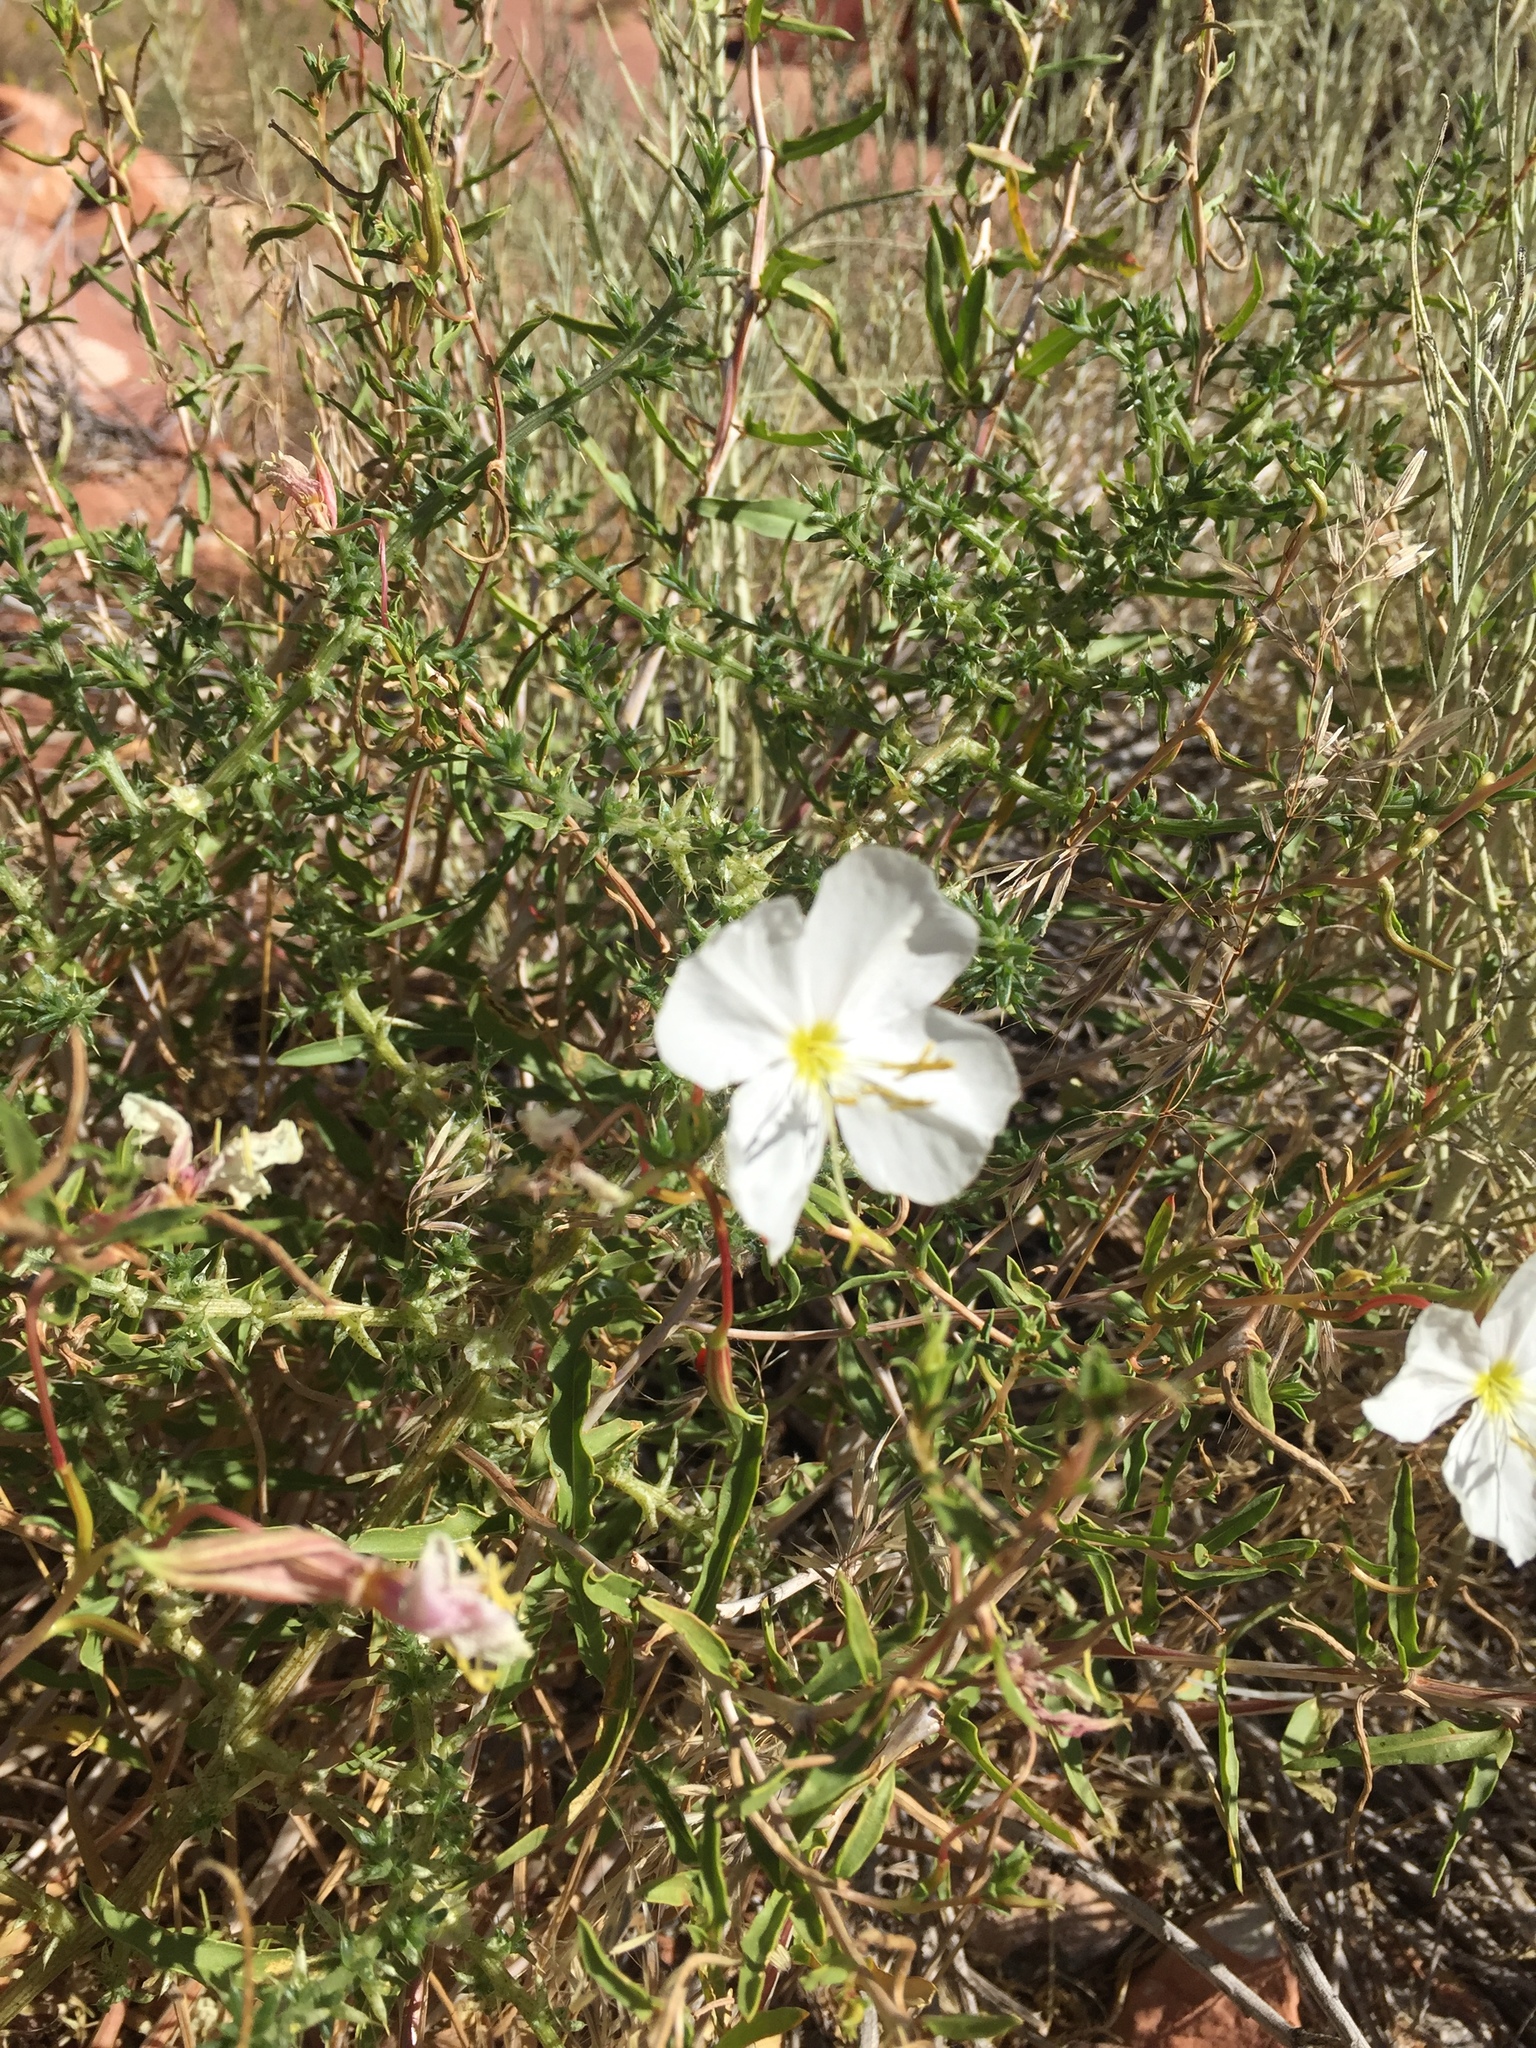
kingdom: Plantae
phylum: Tracheophyta
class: Magnoliopsida
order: Myrtales
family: Onagraceae
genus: Oenothera
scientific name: Oenothera pallida
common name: Pale evening-primrose
